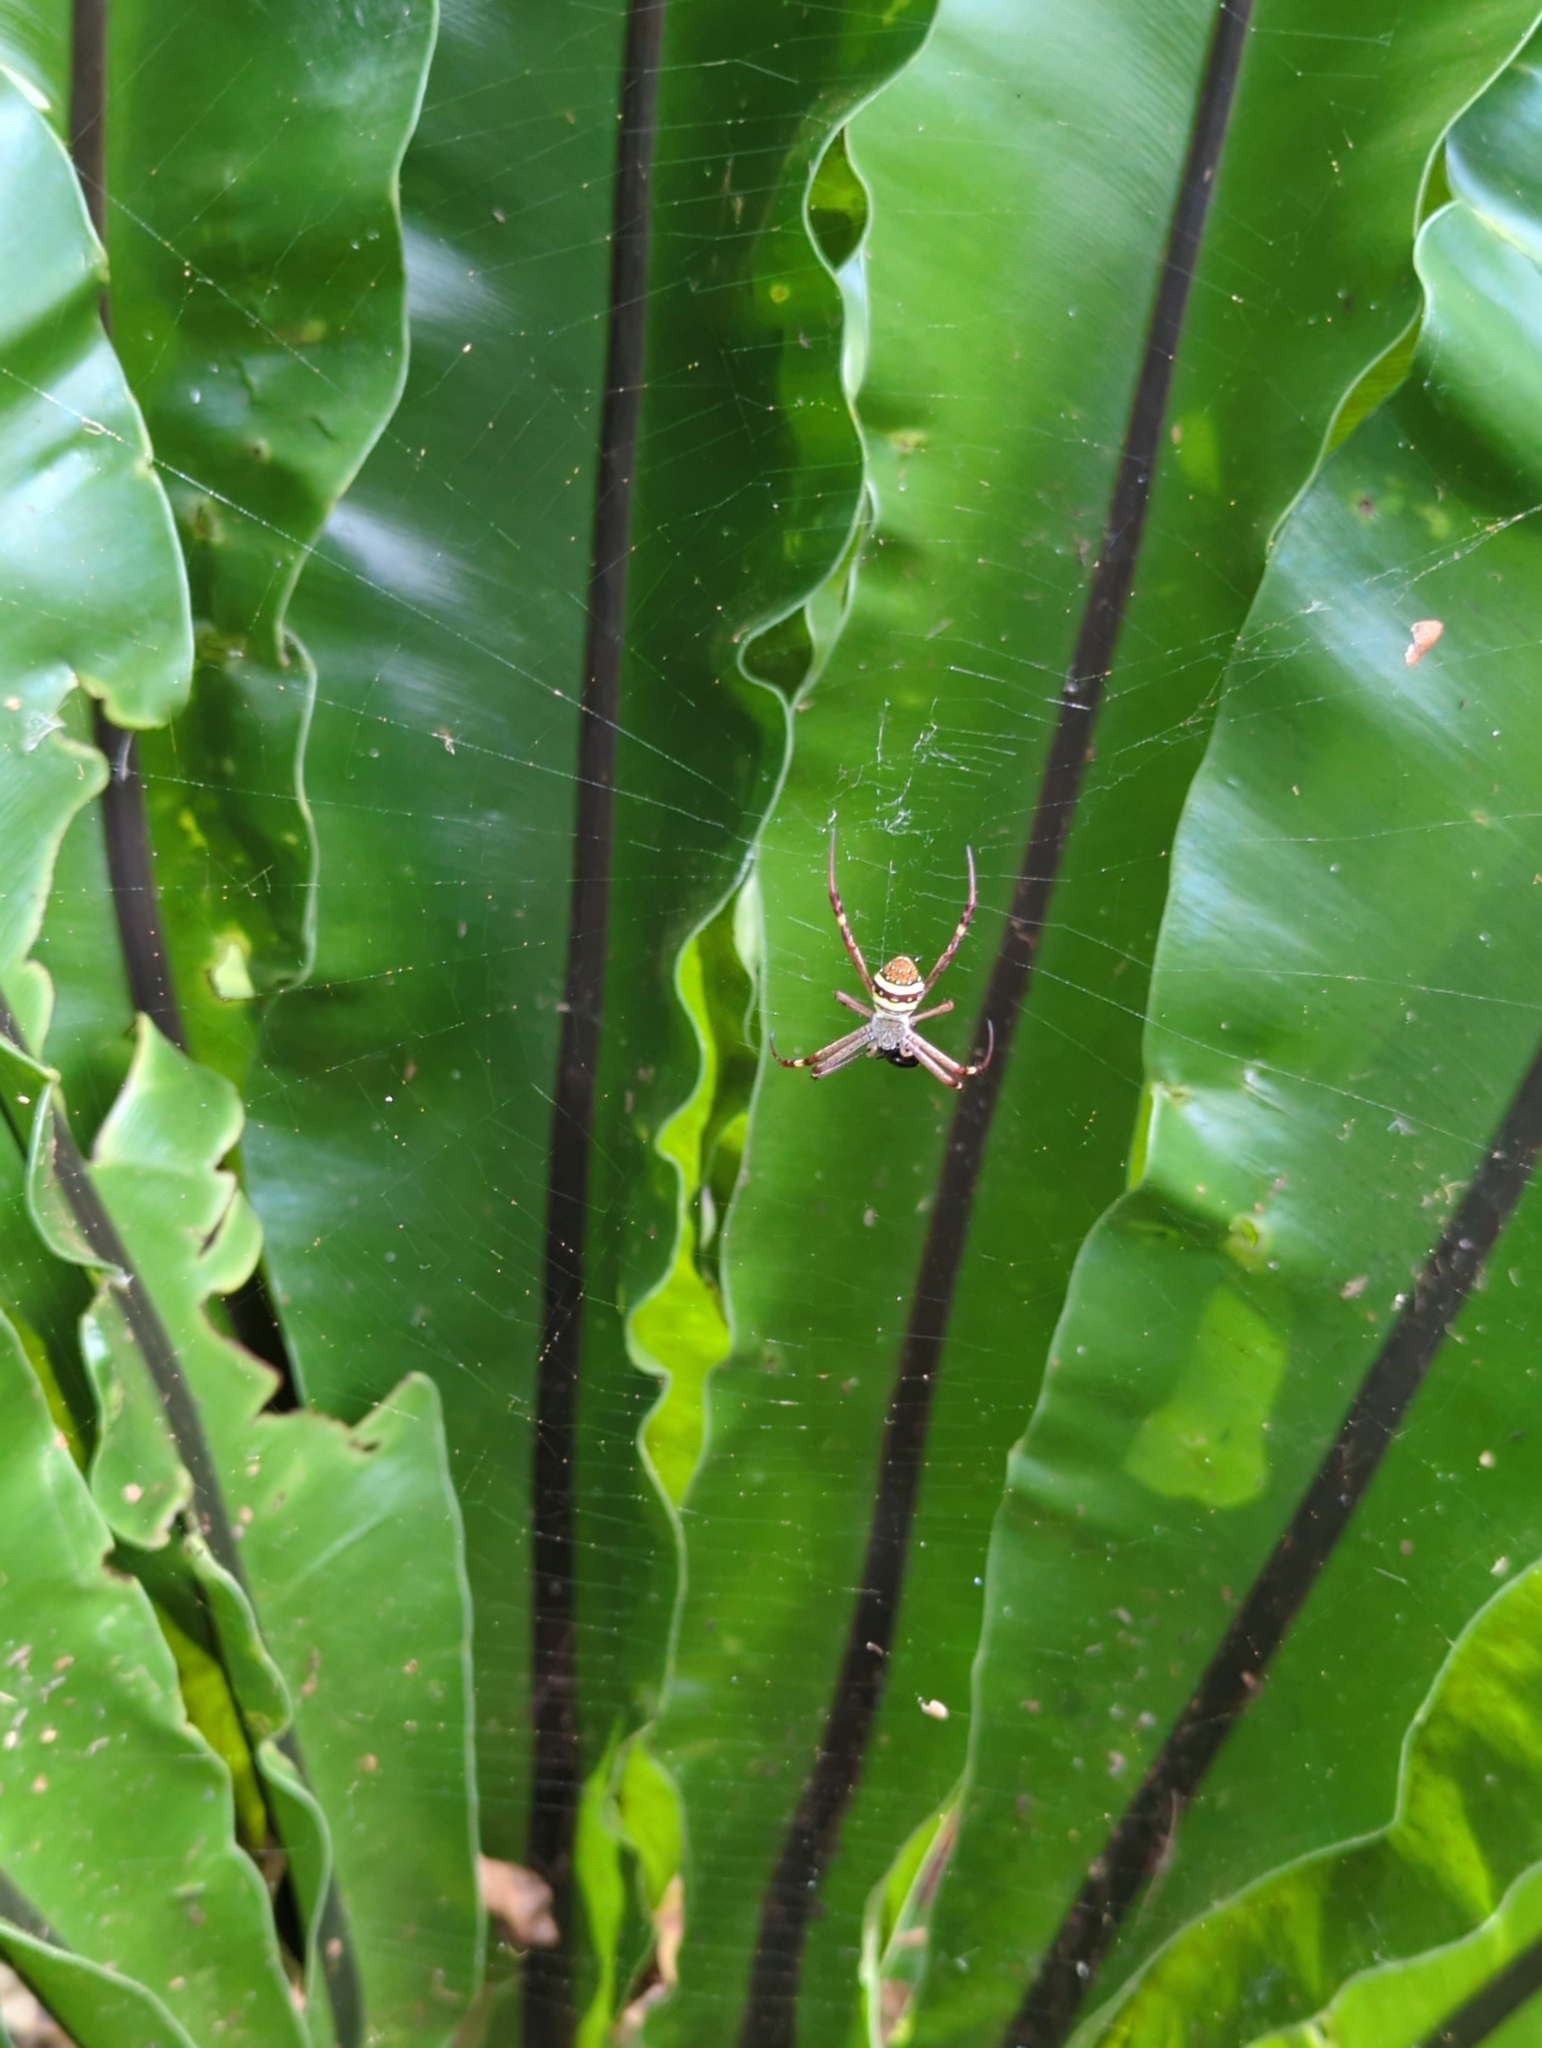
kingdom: Animalia
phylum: Arthropoda
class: Arachnida
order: Araneae
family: Araneidae
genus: Argiope
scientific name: Argiope keyserlingi
